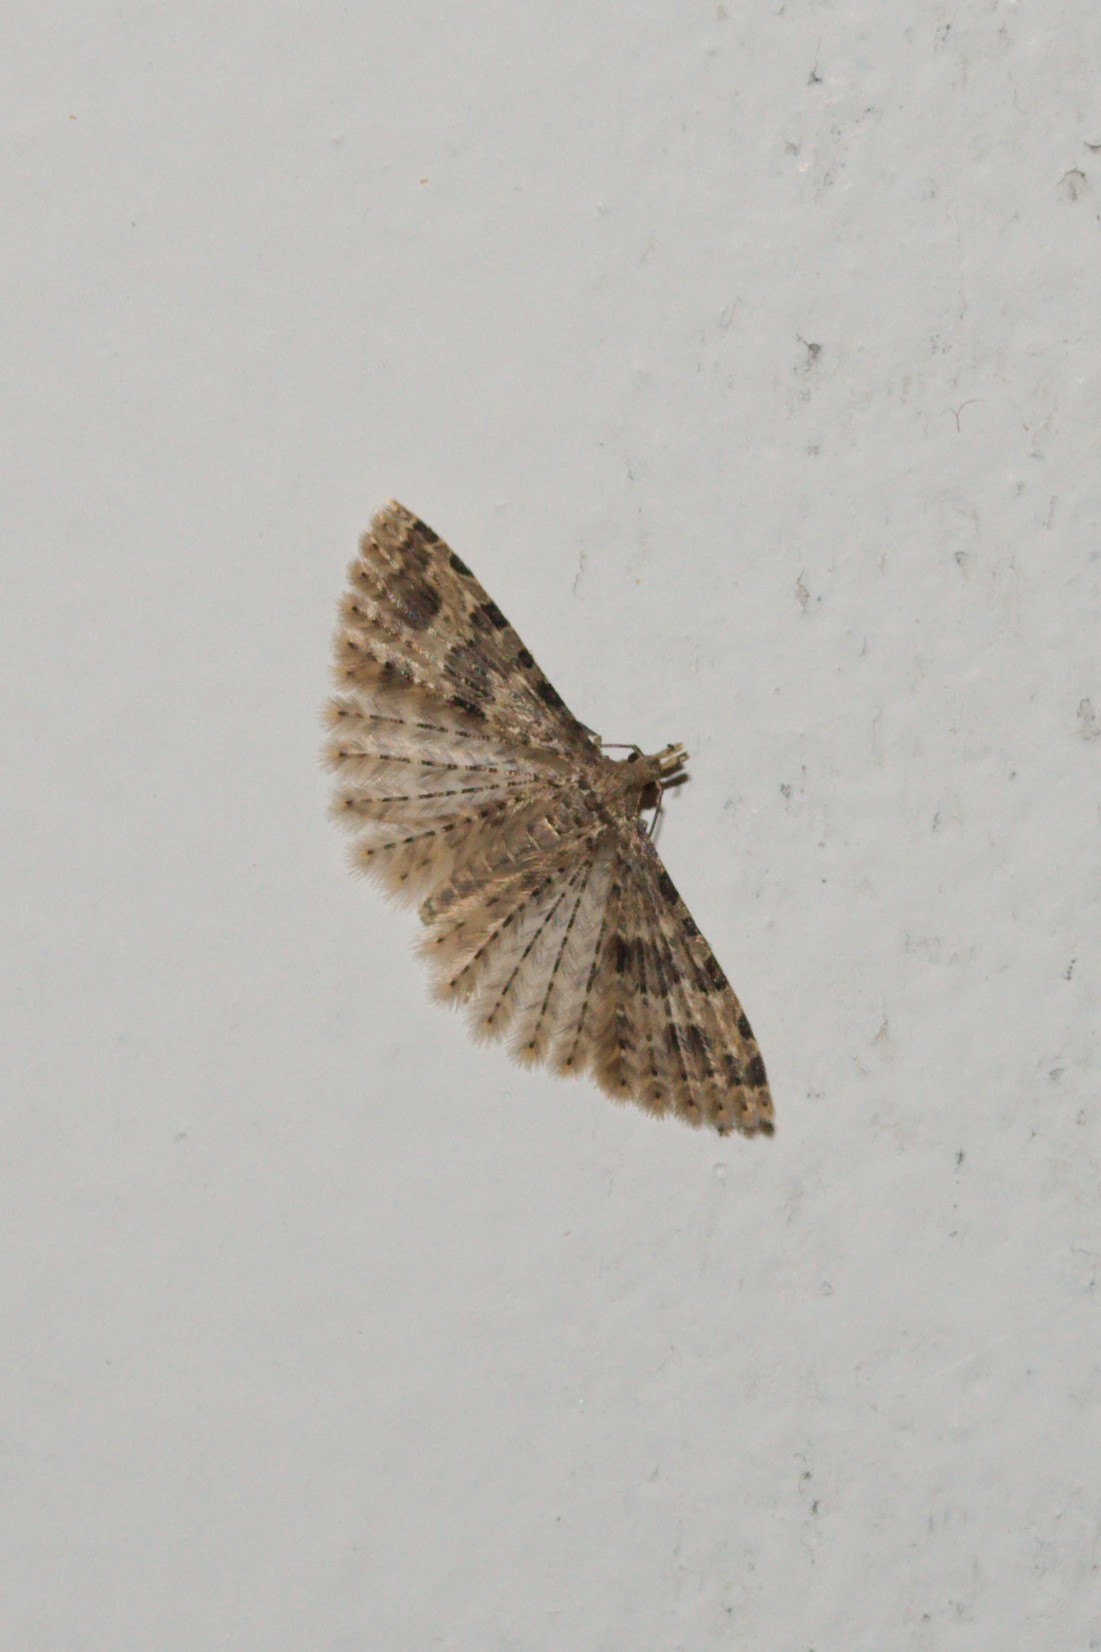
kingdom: Animalia
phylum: Arthropoda
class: Insecta
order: Lepidoptera
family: Alucitidae
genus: Alucita
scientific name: Alucita hexadactyla
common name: Twenty-plume moth
